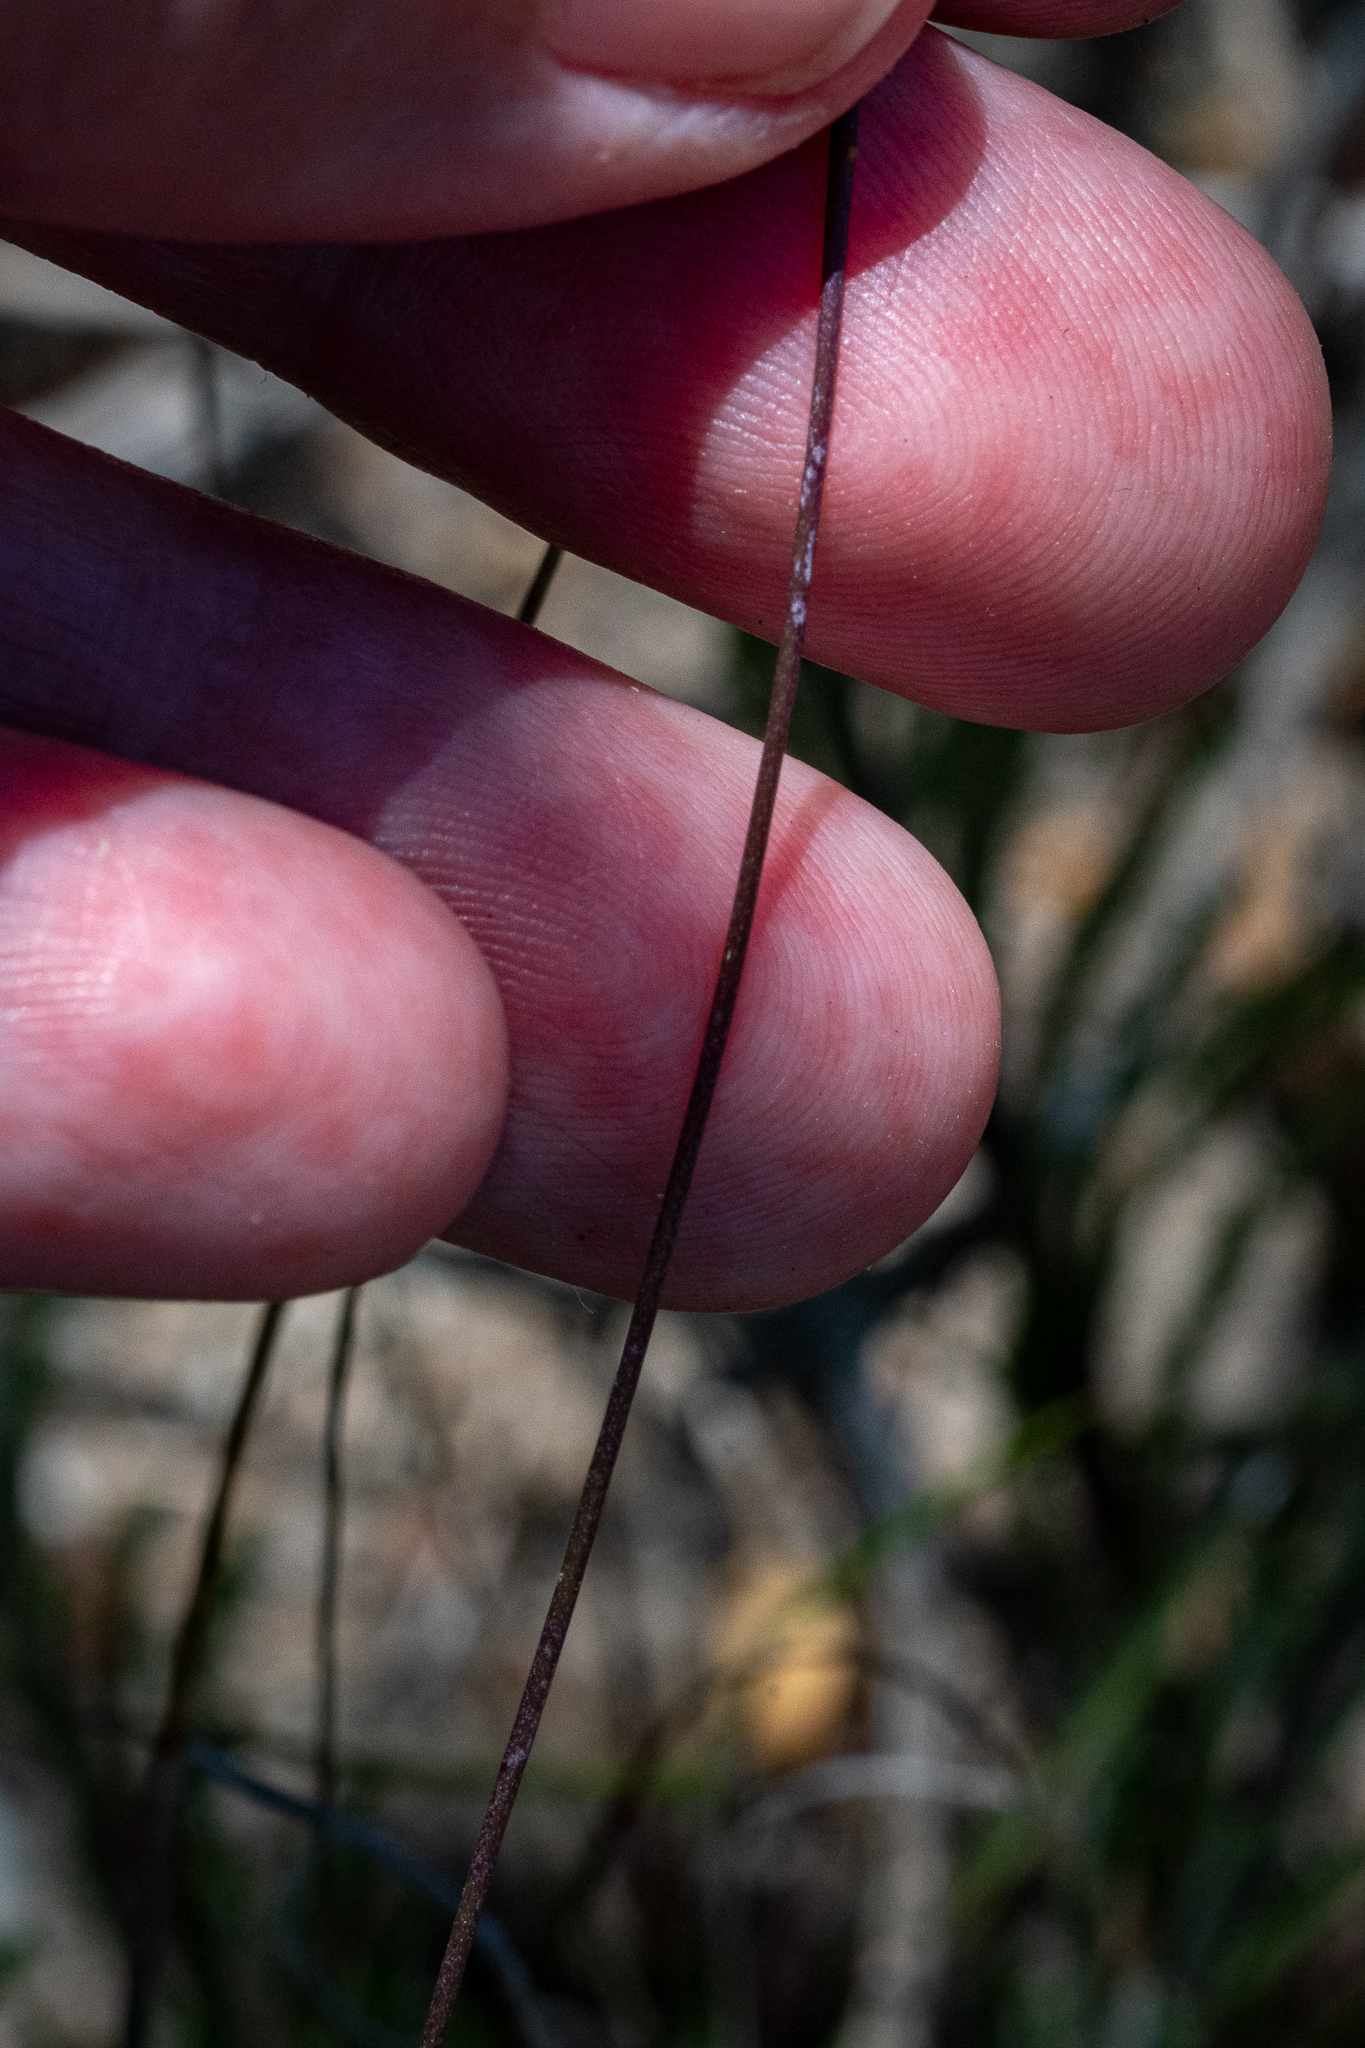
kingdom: Plantae
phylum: Tracheophyta
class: Magnoliopsida
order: Asterales
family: Campanulaceae
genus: Lobelia
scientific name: Lobelia chamaepitys
